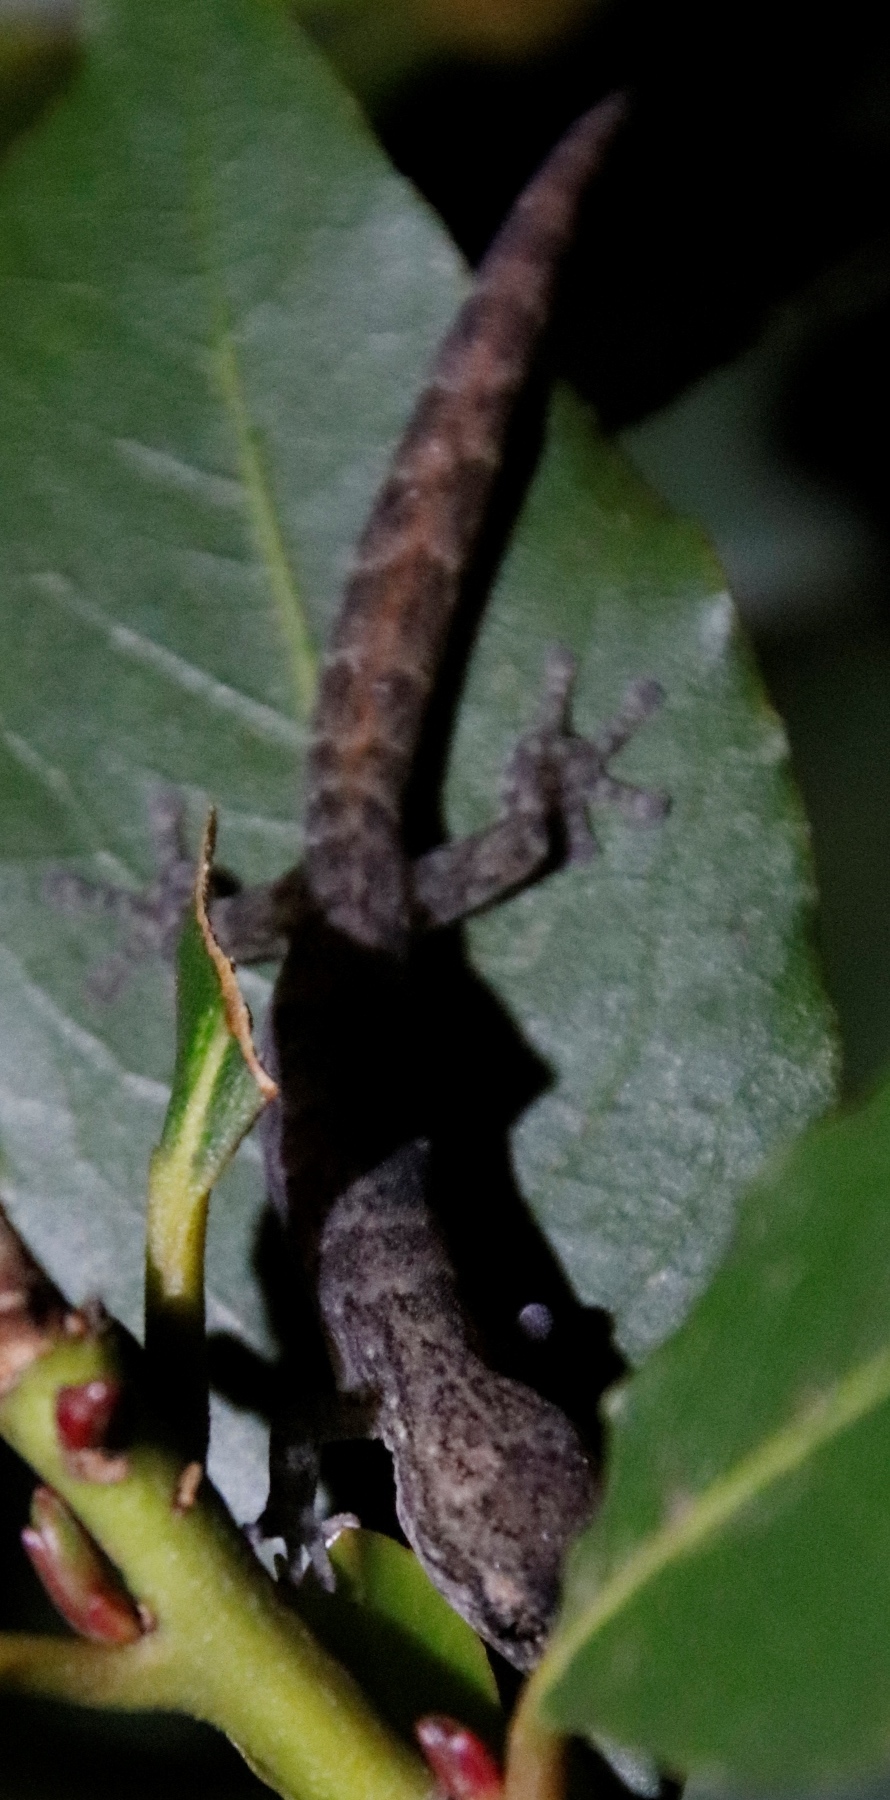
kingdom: Animalia
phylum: Chordata
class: Squamata
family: Gekkonidae
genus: Afrogecko
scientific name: Afrogecko porphyreus
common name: Marbled leaf-toed gecko
